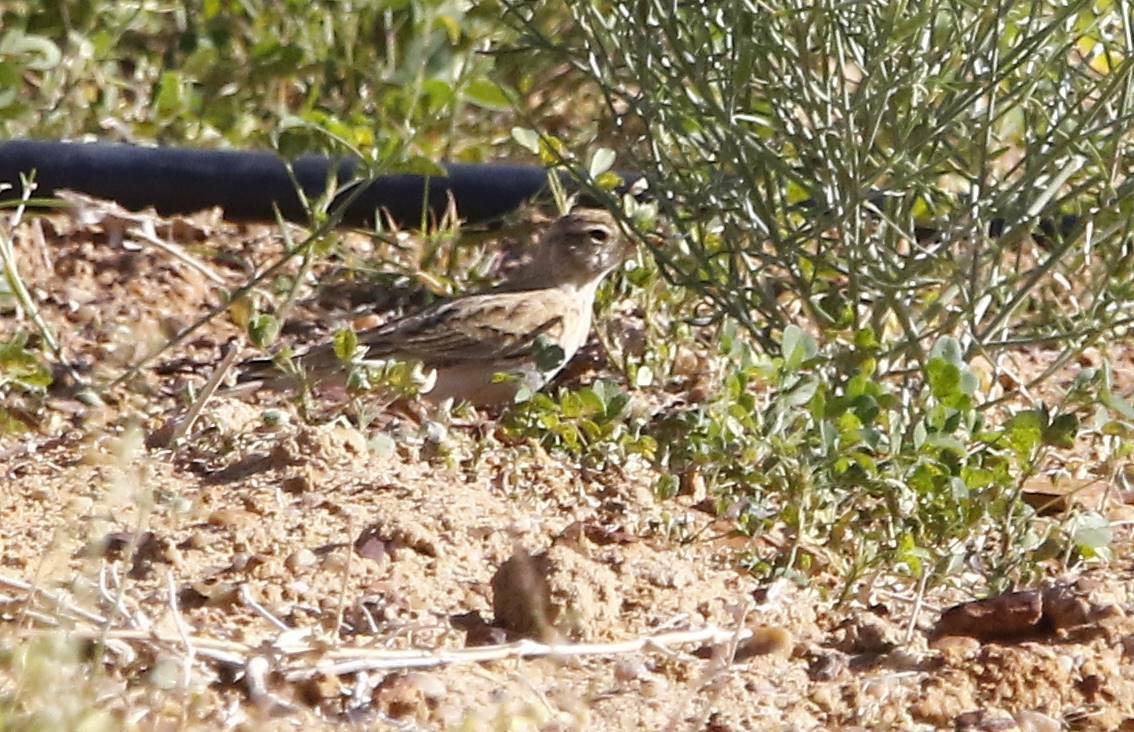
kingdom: Animalia
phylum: Chordata
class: Aves
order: Passeriformes
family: Alaudidae
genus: Calandrella
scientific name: Calandrella brachydactyla
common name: Greater short-toed lark
